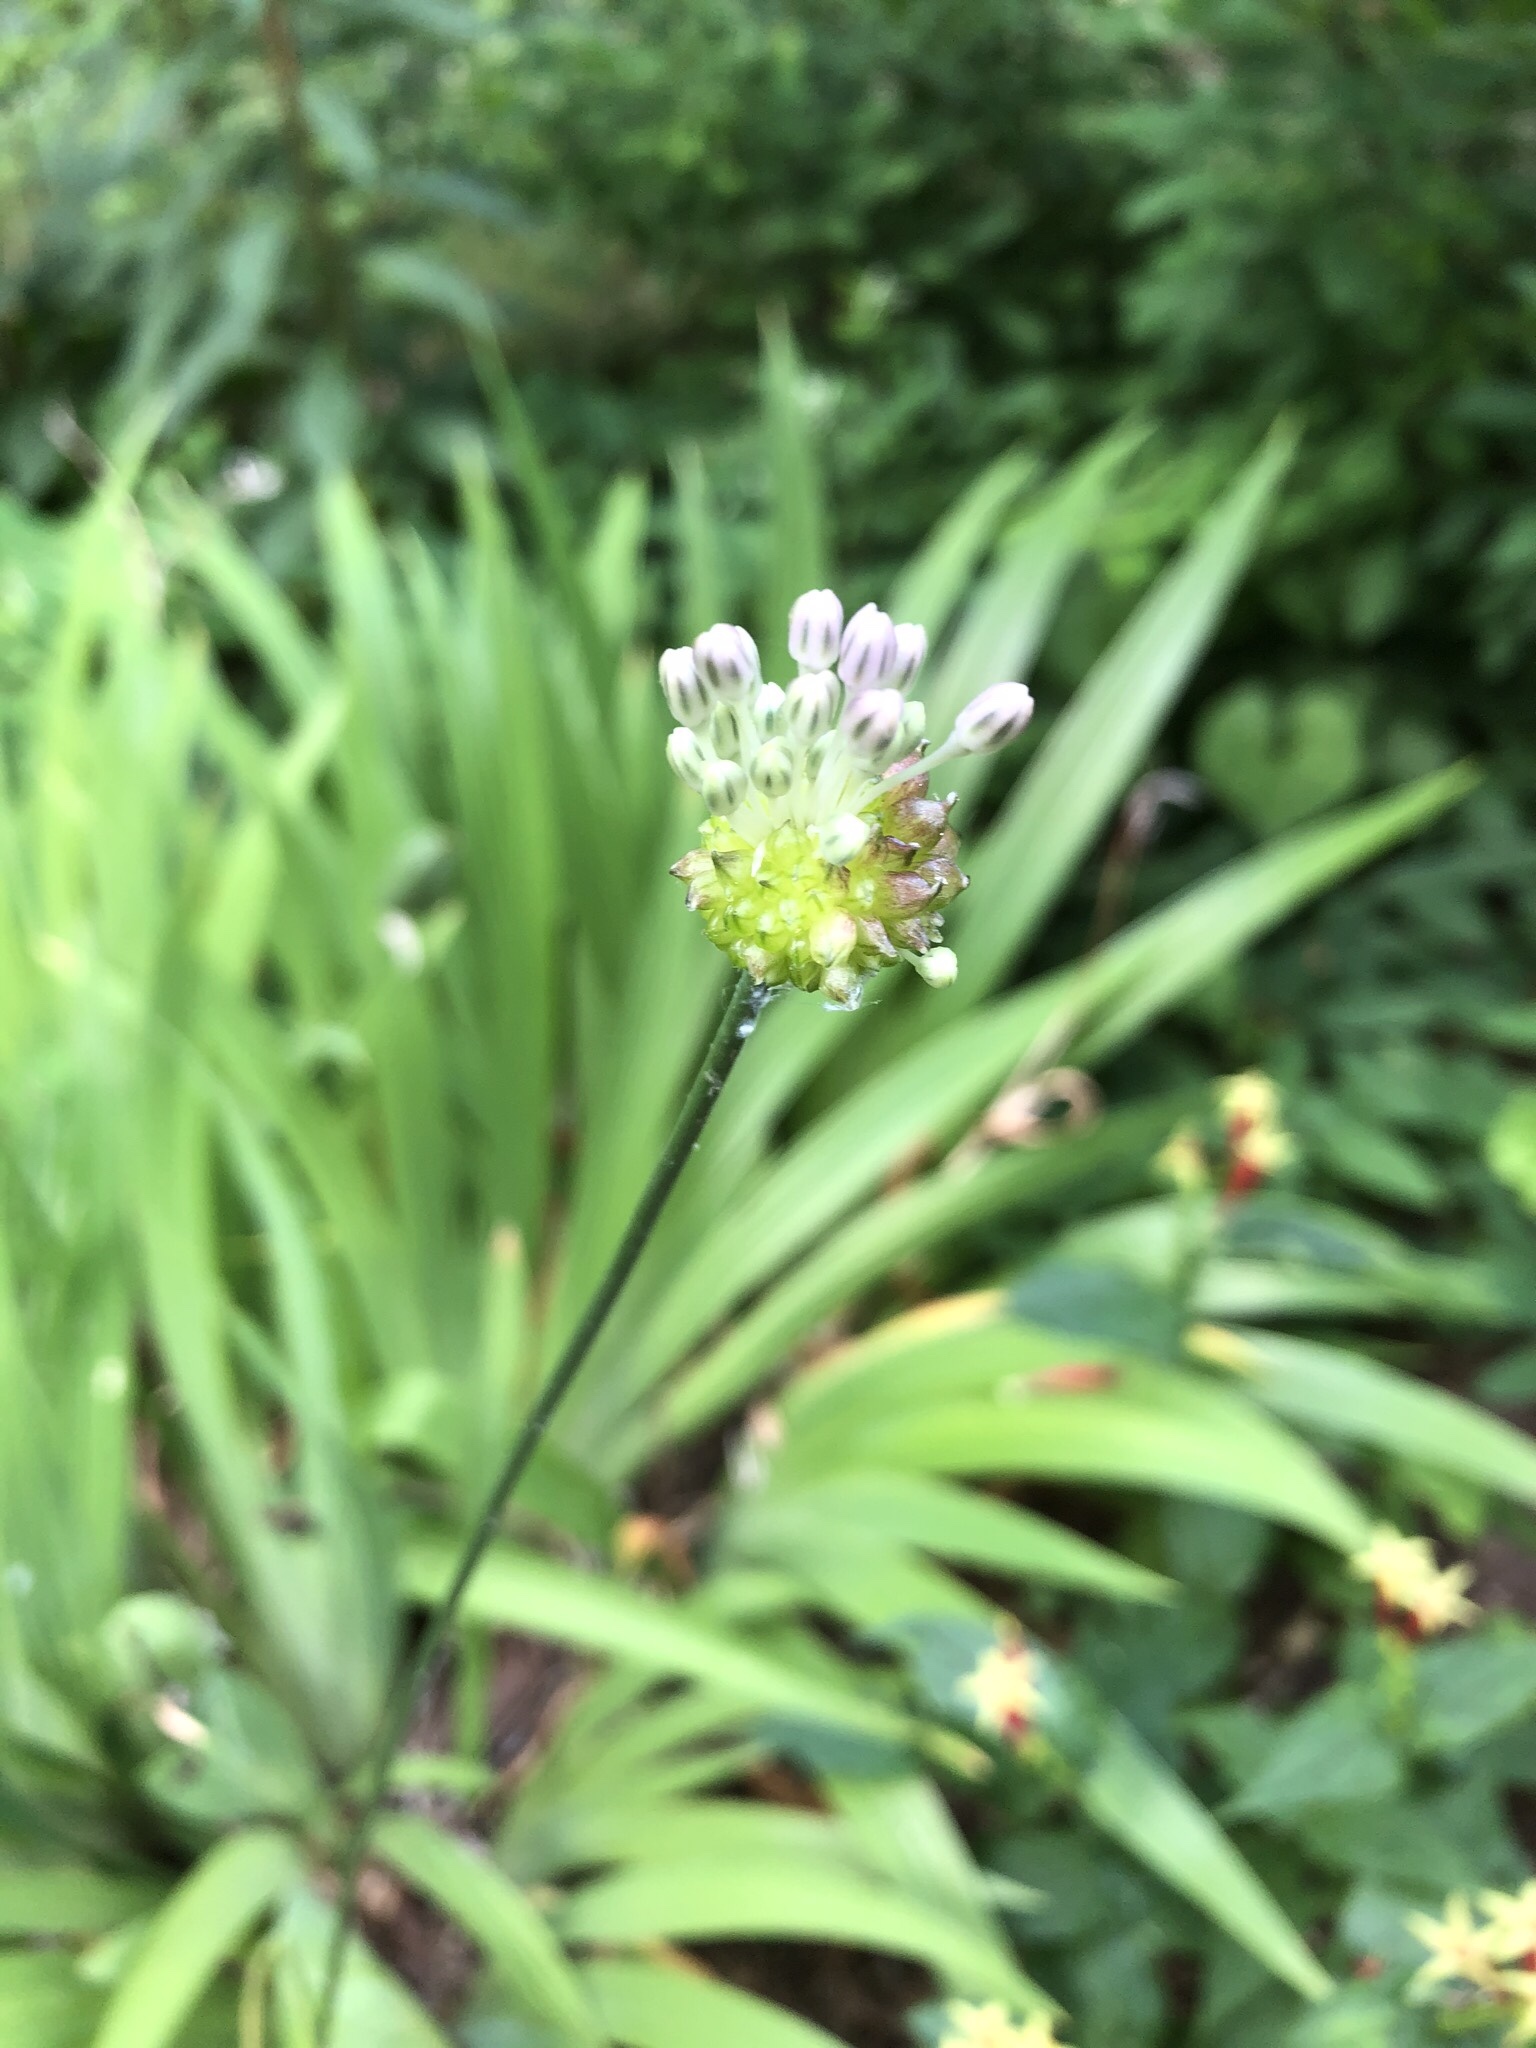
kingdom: Plantae
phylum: Tracheophyta
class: Liliopsida
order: Asparagales
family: Amaryllidaceae
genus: Allium
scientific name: Allium vineale
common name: Crow garlic
